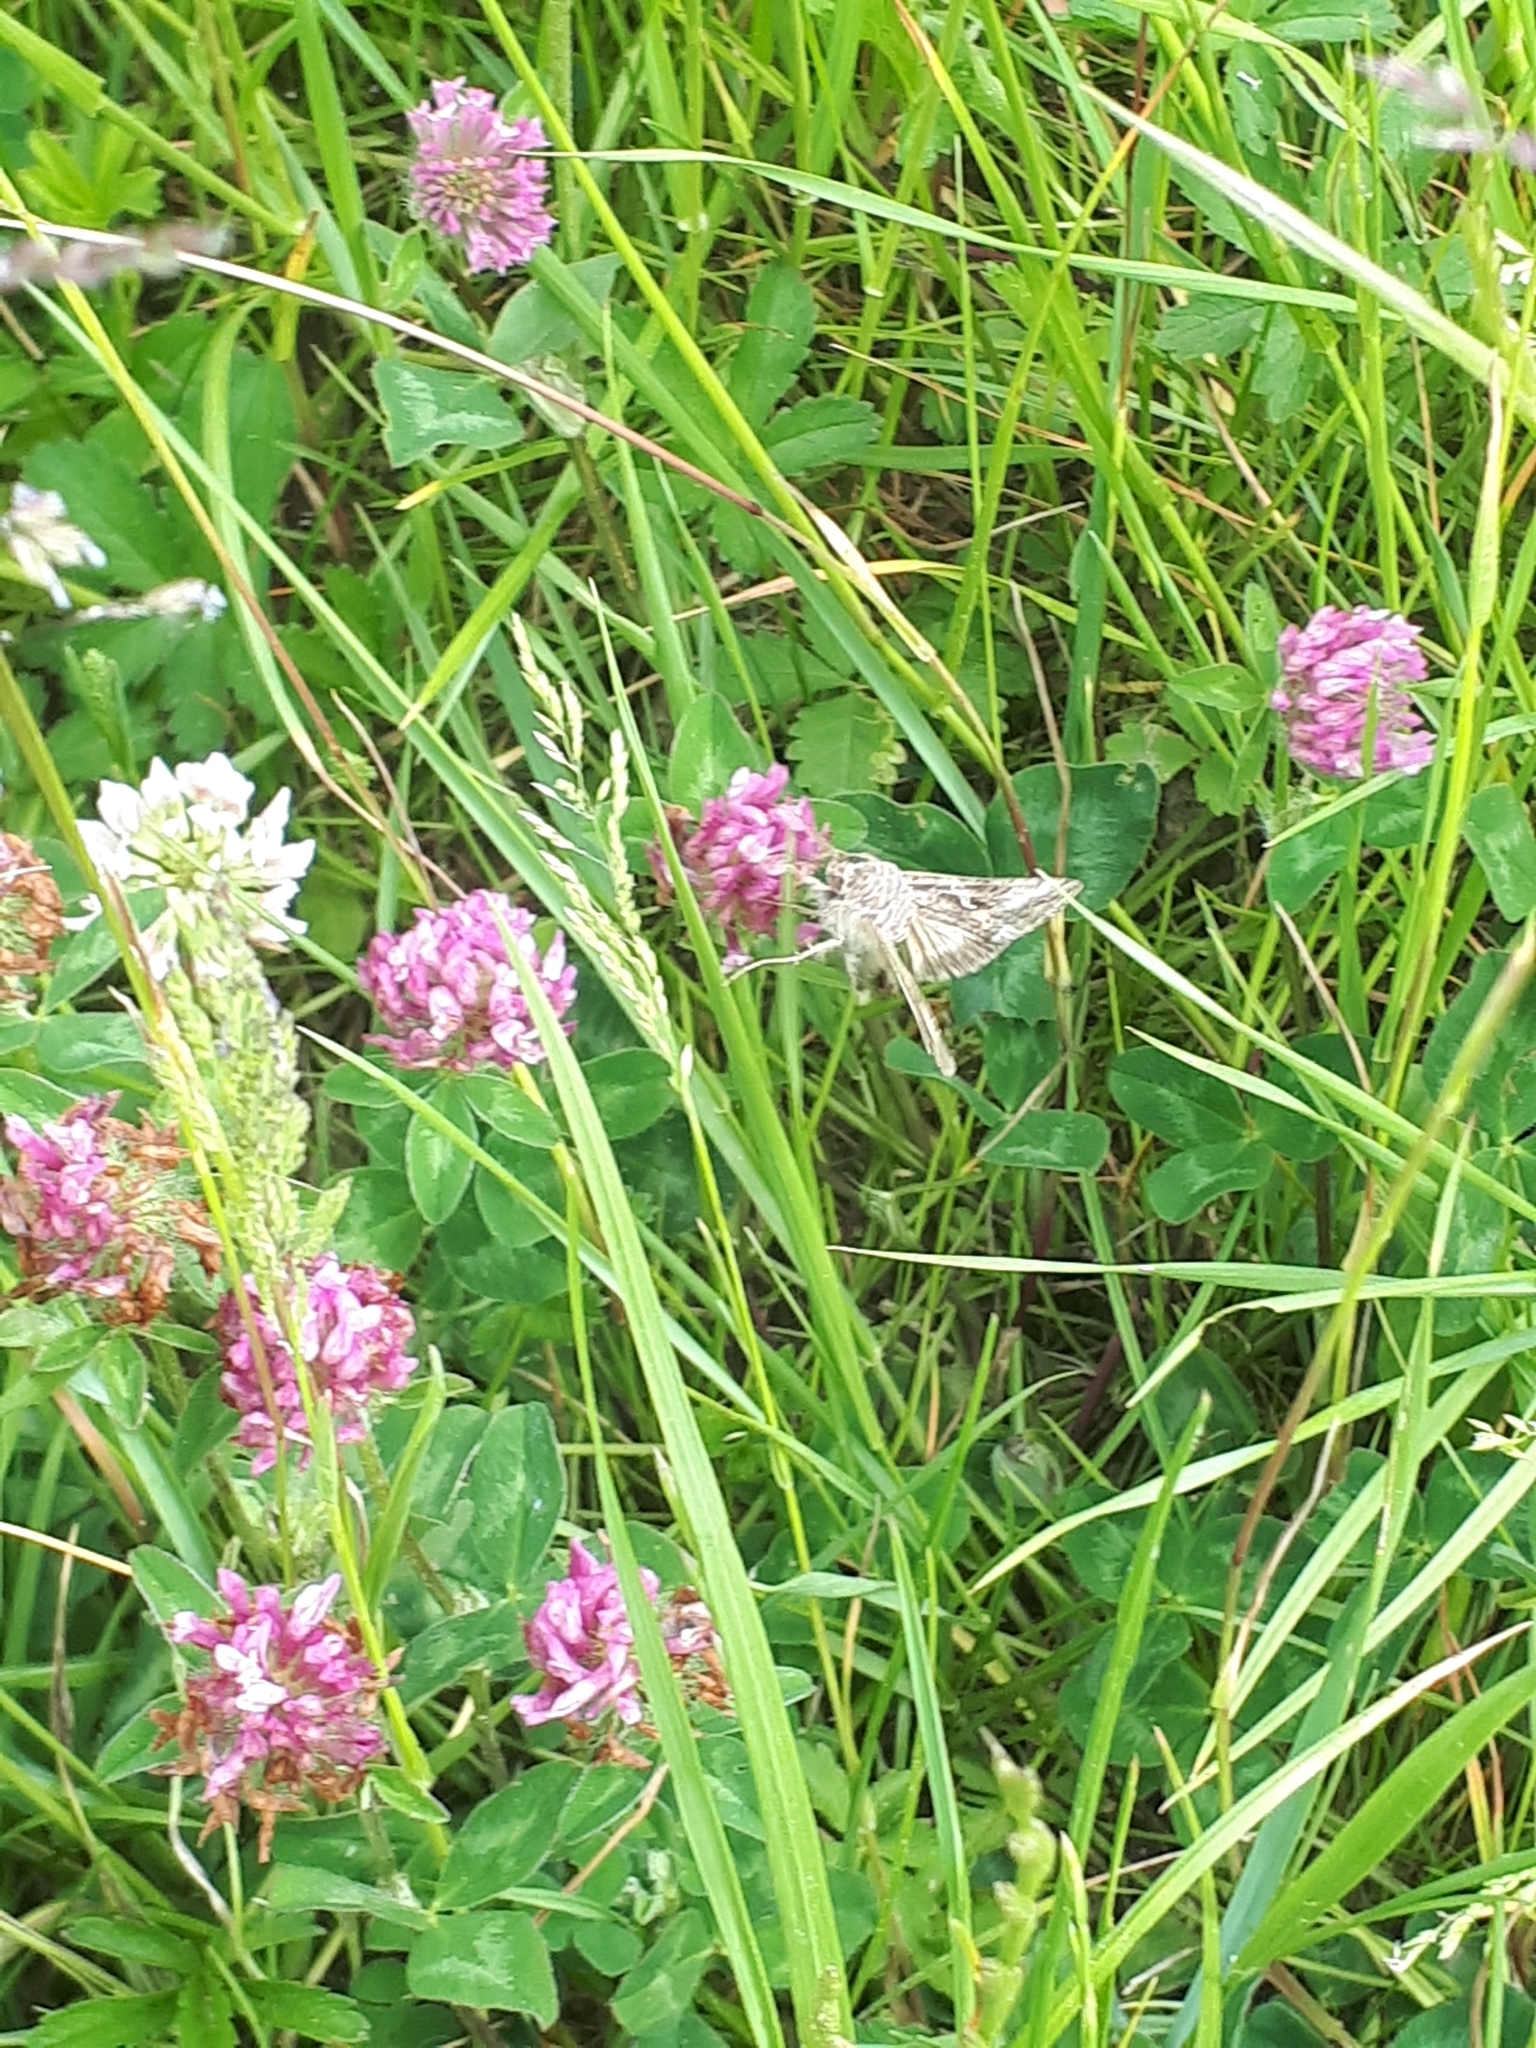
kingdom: Animalia
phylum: Arthropoda
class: Insecta
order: Lepidoptera
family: Noctuidae
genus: Autographa
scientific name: Autographa gamma
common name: Silver y
